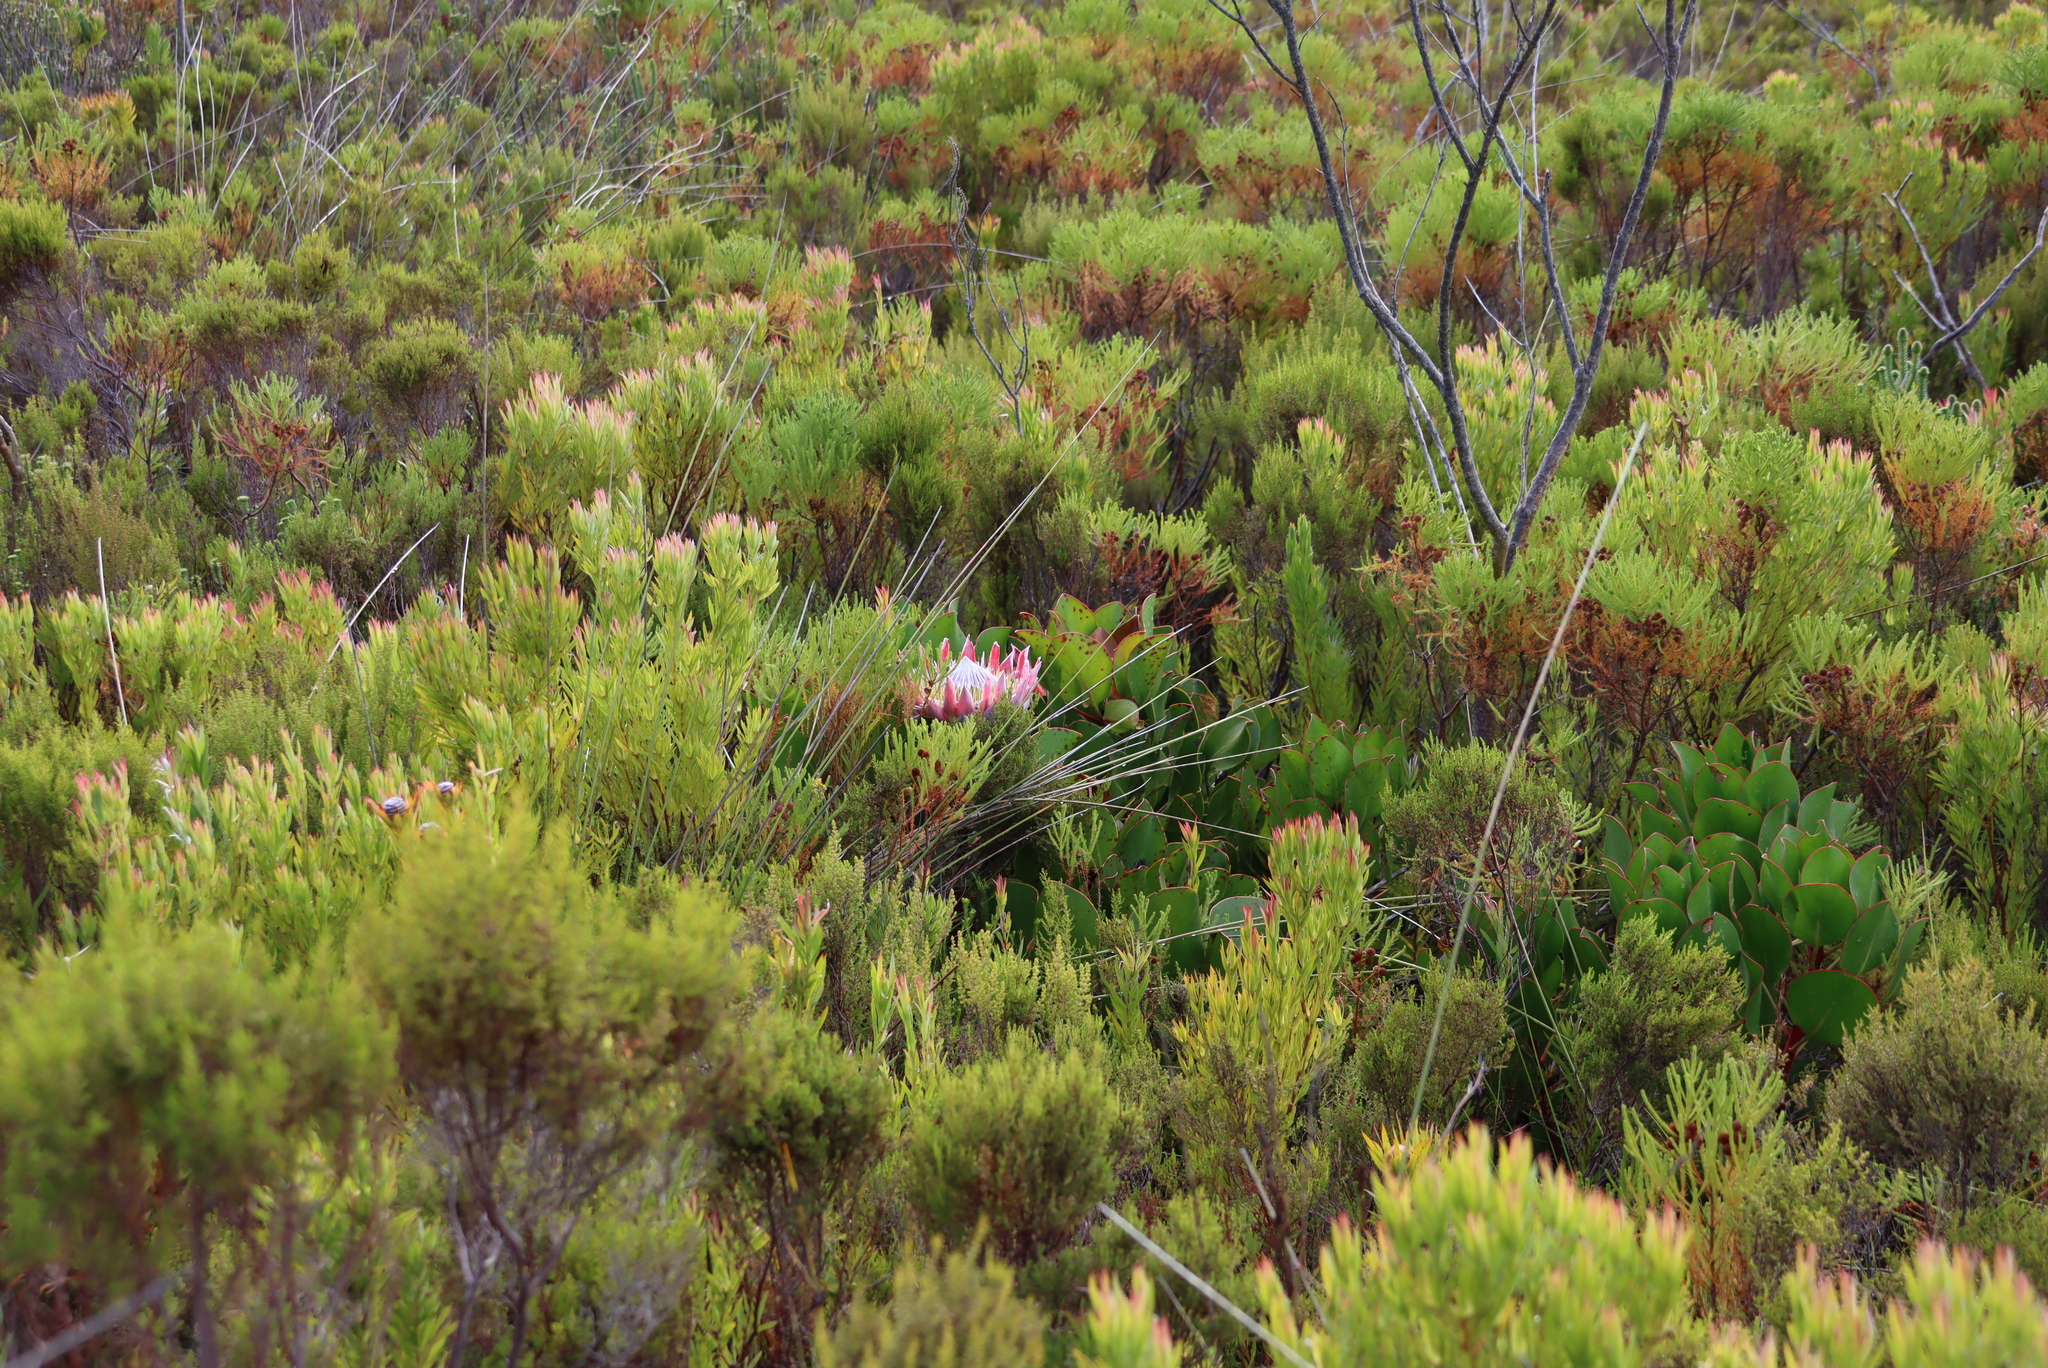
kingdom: Plantae
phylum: Tracheophyta
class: Magnoliopsida
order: Proteales
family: Proteaceae
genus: Leucadendron
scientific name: Leucadendron xanthoconus
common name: Sickle-leaf conebush
